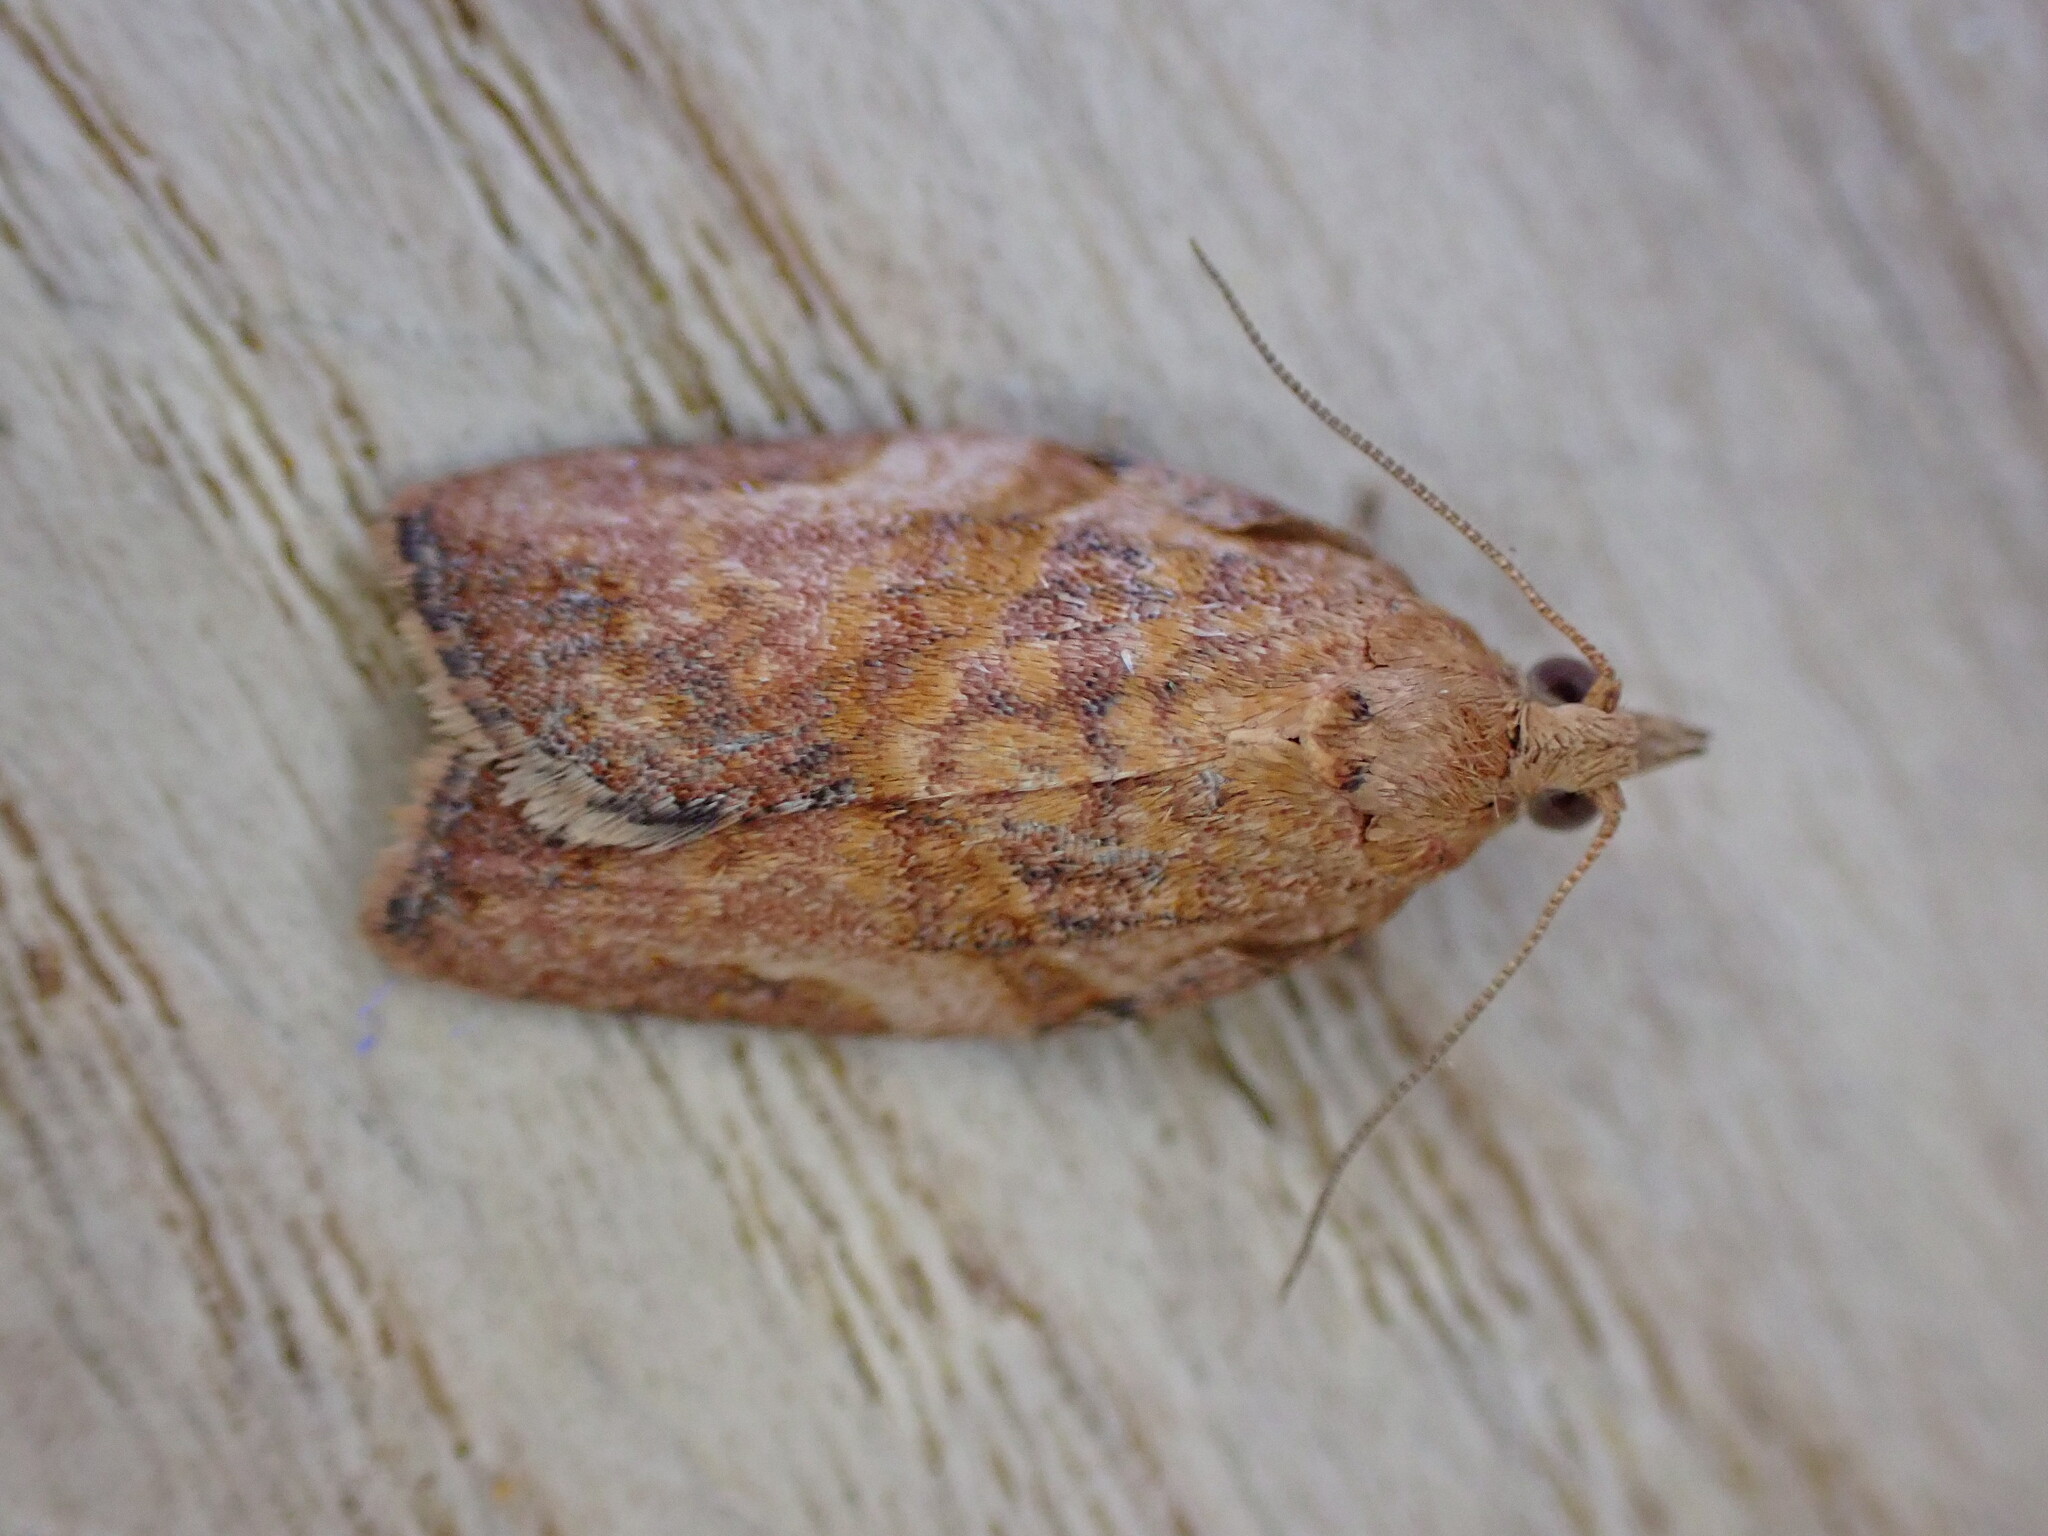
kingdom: Animalia
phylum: Arthropoda
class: Insecta
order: Lepidoptera
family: Tortricidae
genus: Epiphyas
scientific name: Epiphyas postvittana
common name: Light brown apple moth
